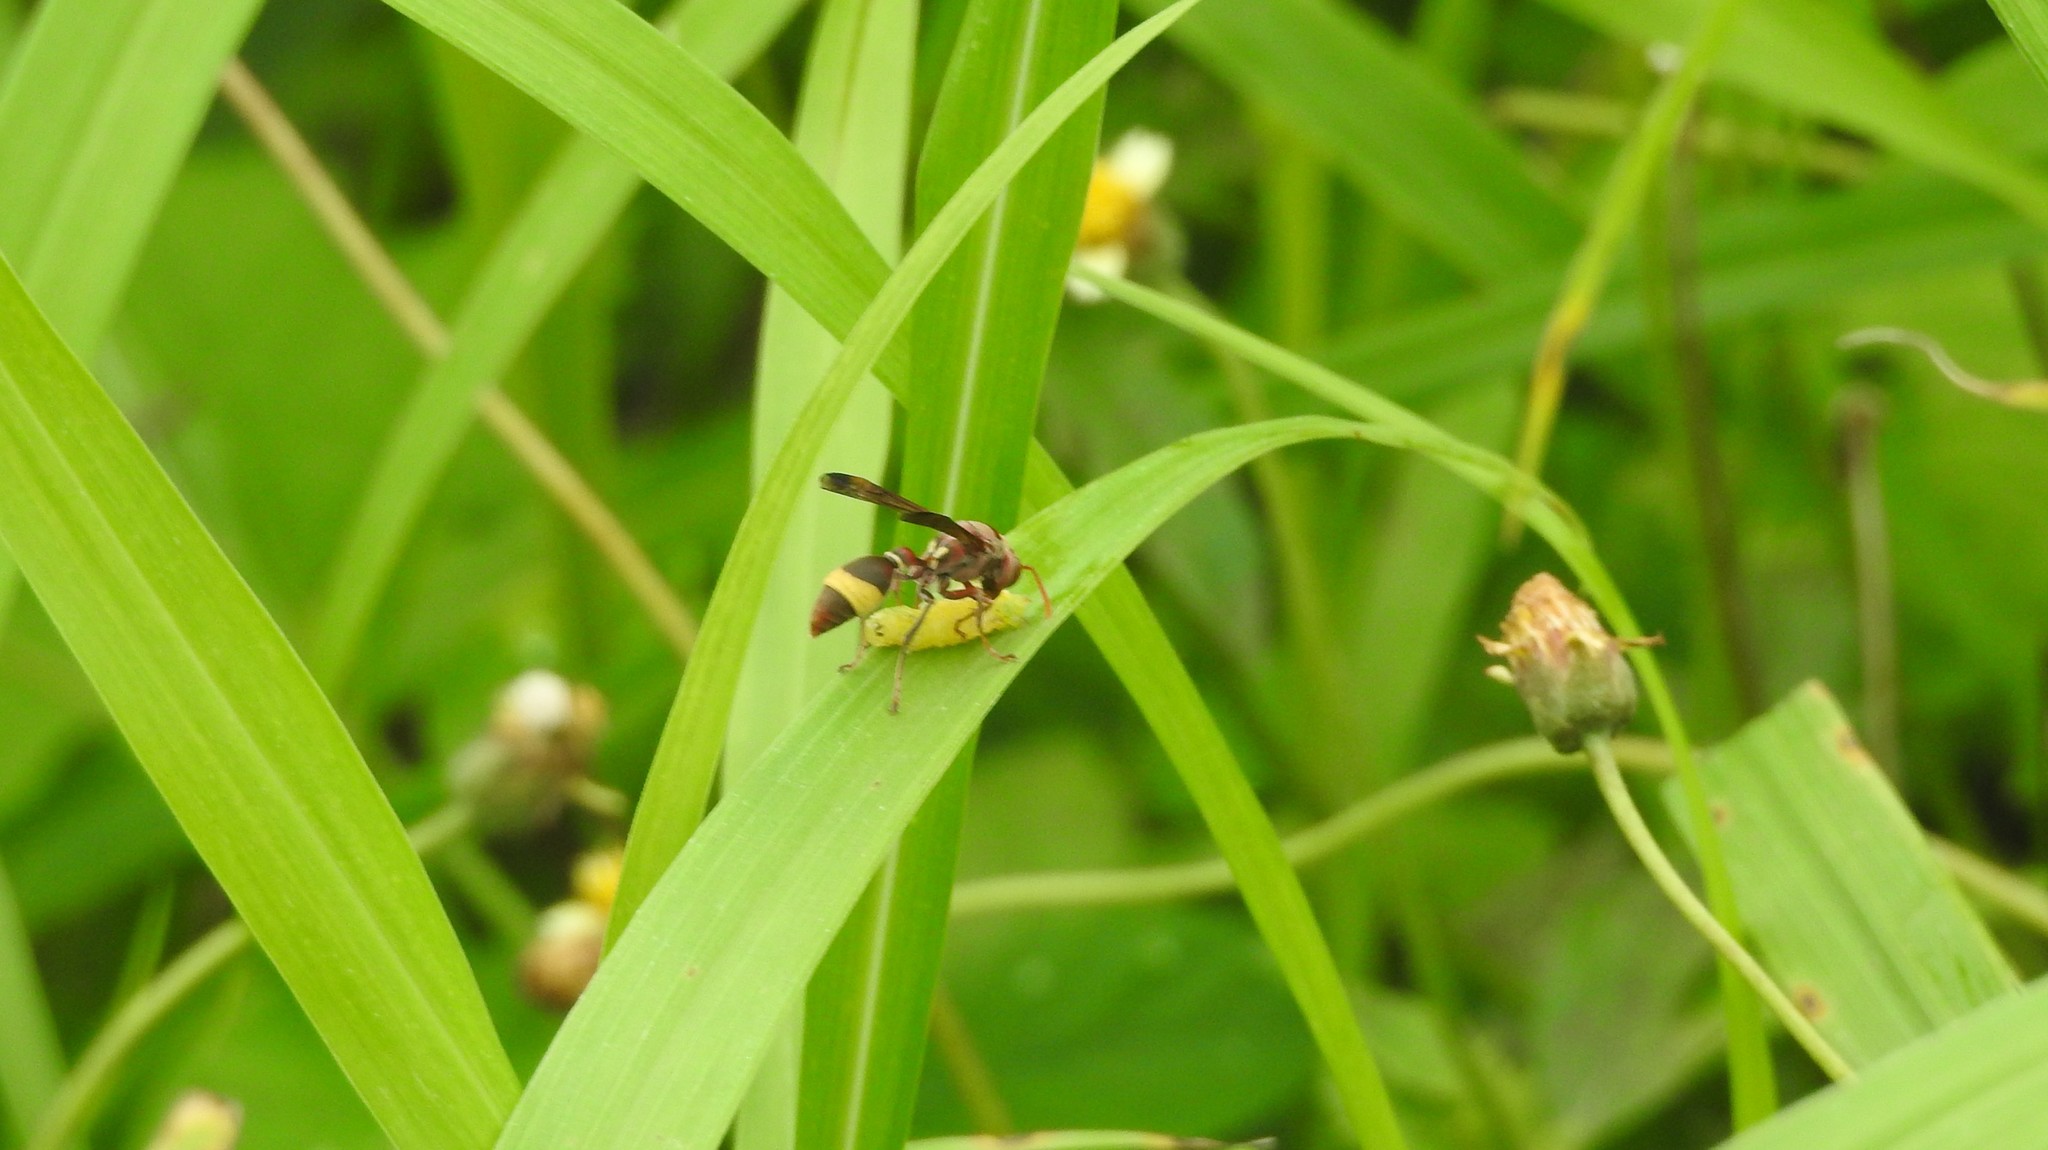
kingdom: Animalia
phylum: Arthropoda
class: Insecta
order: Hymenoptera
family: Vespidae
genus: Ropalidia
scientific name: Ropalidia
